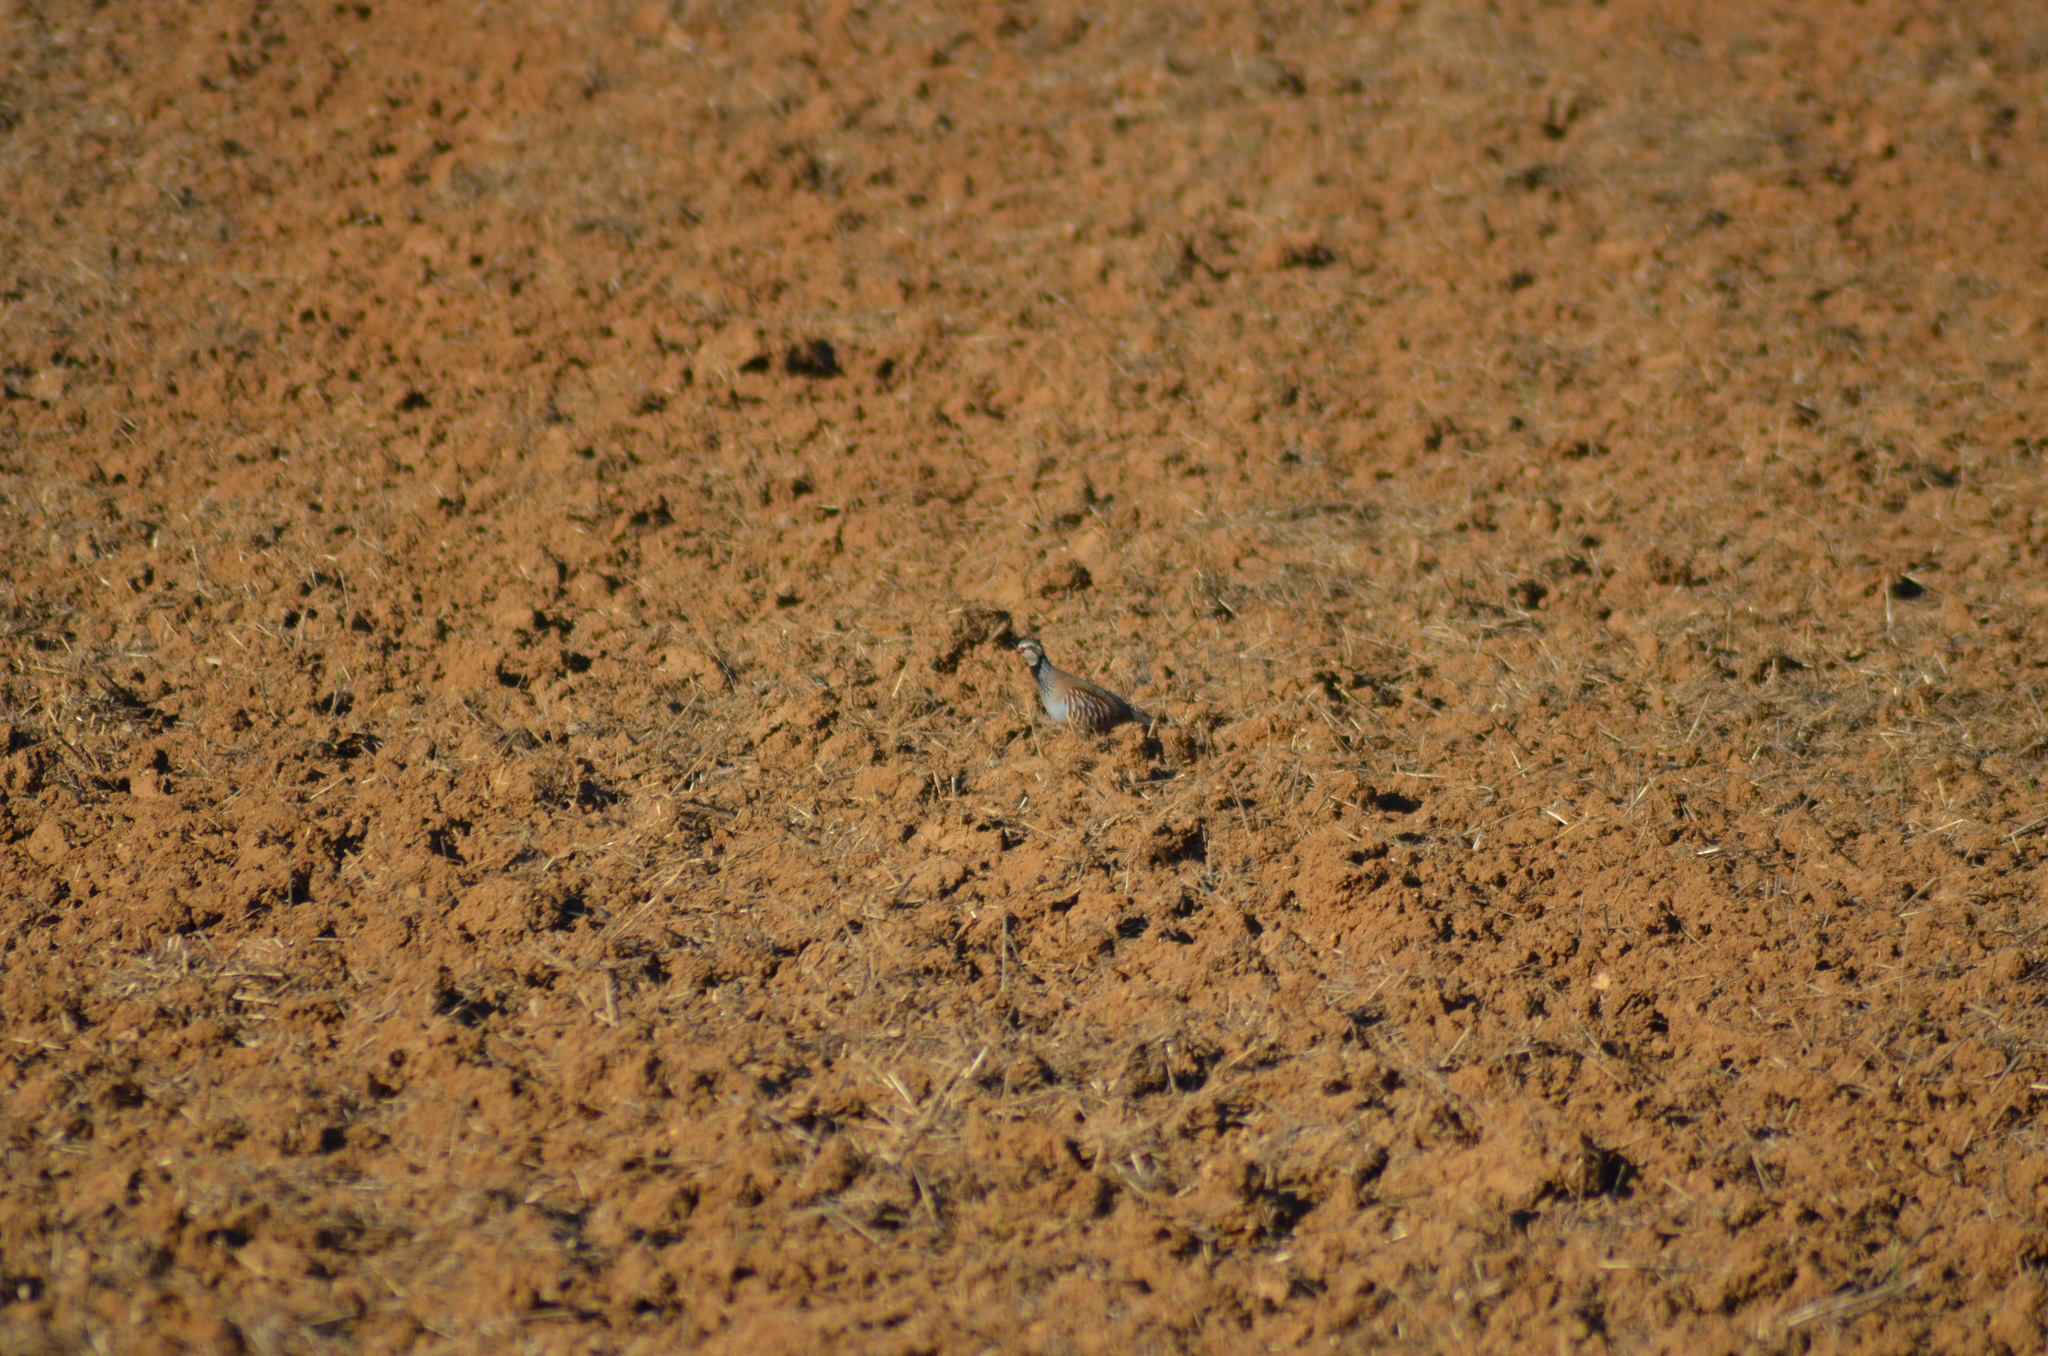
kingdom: Animalia
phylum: Chordata
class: Aves
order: Galliformes
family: Phasianidae
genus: Alectoris
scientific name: Alectoris rufa
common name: Red-legged partridge
